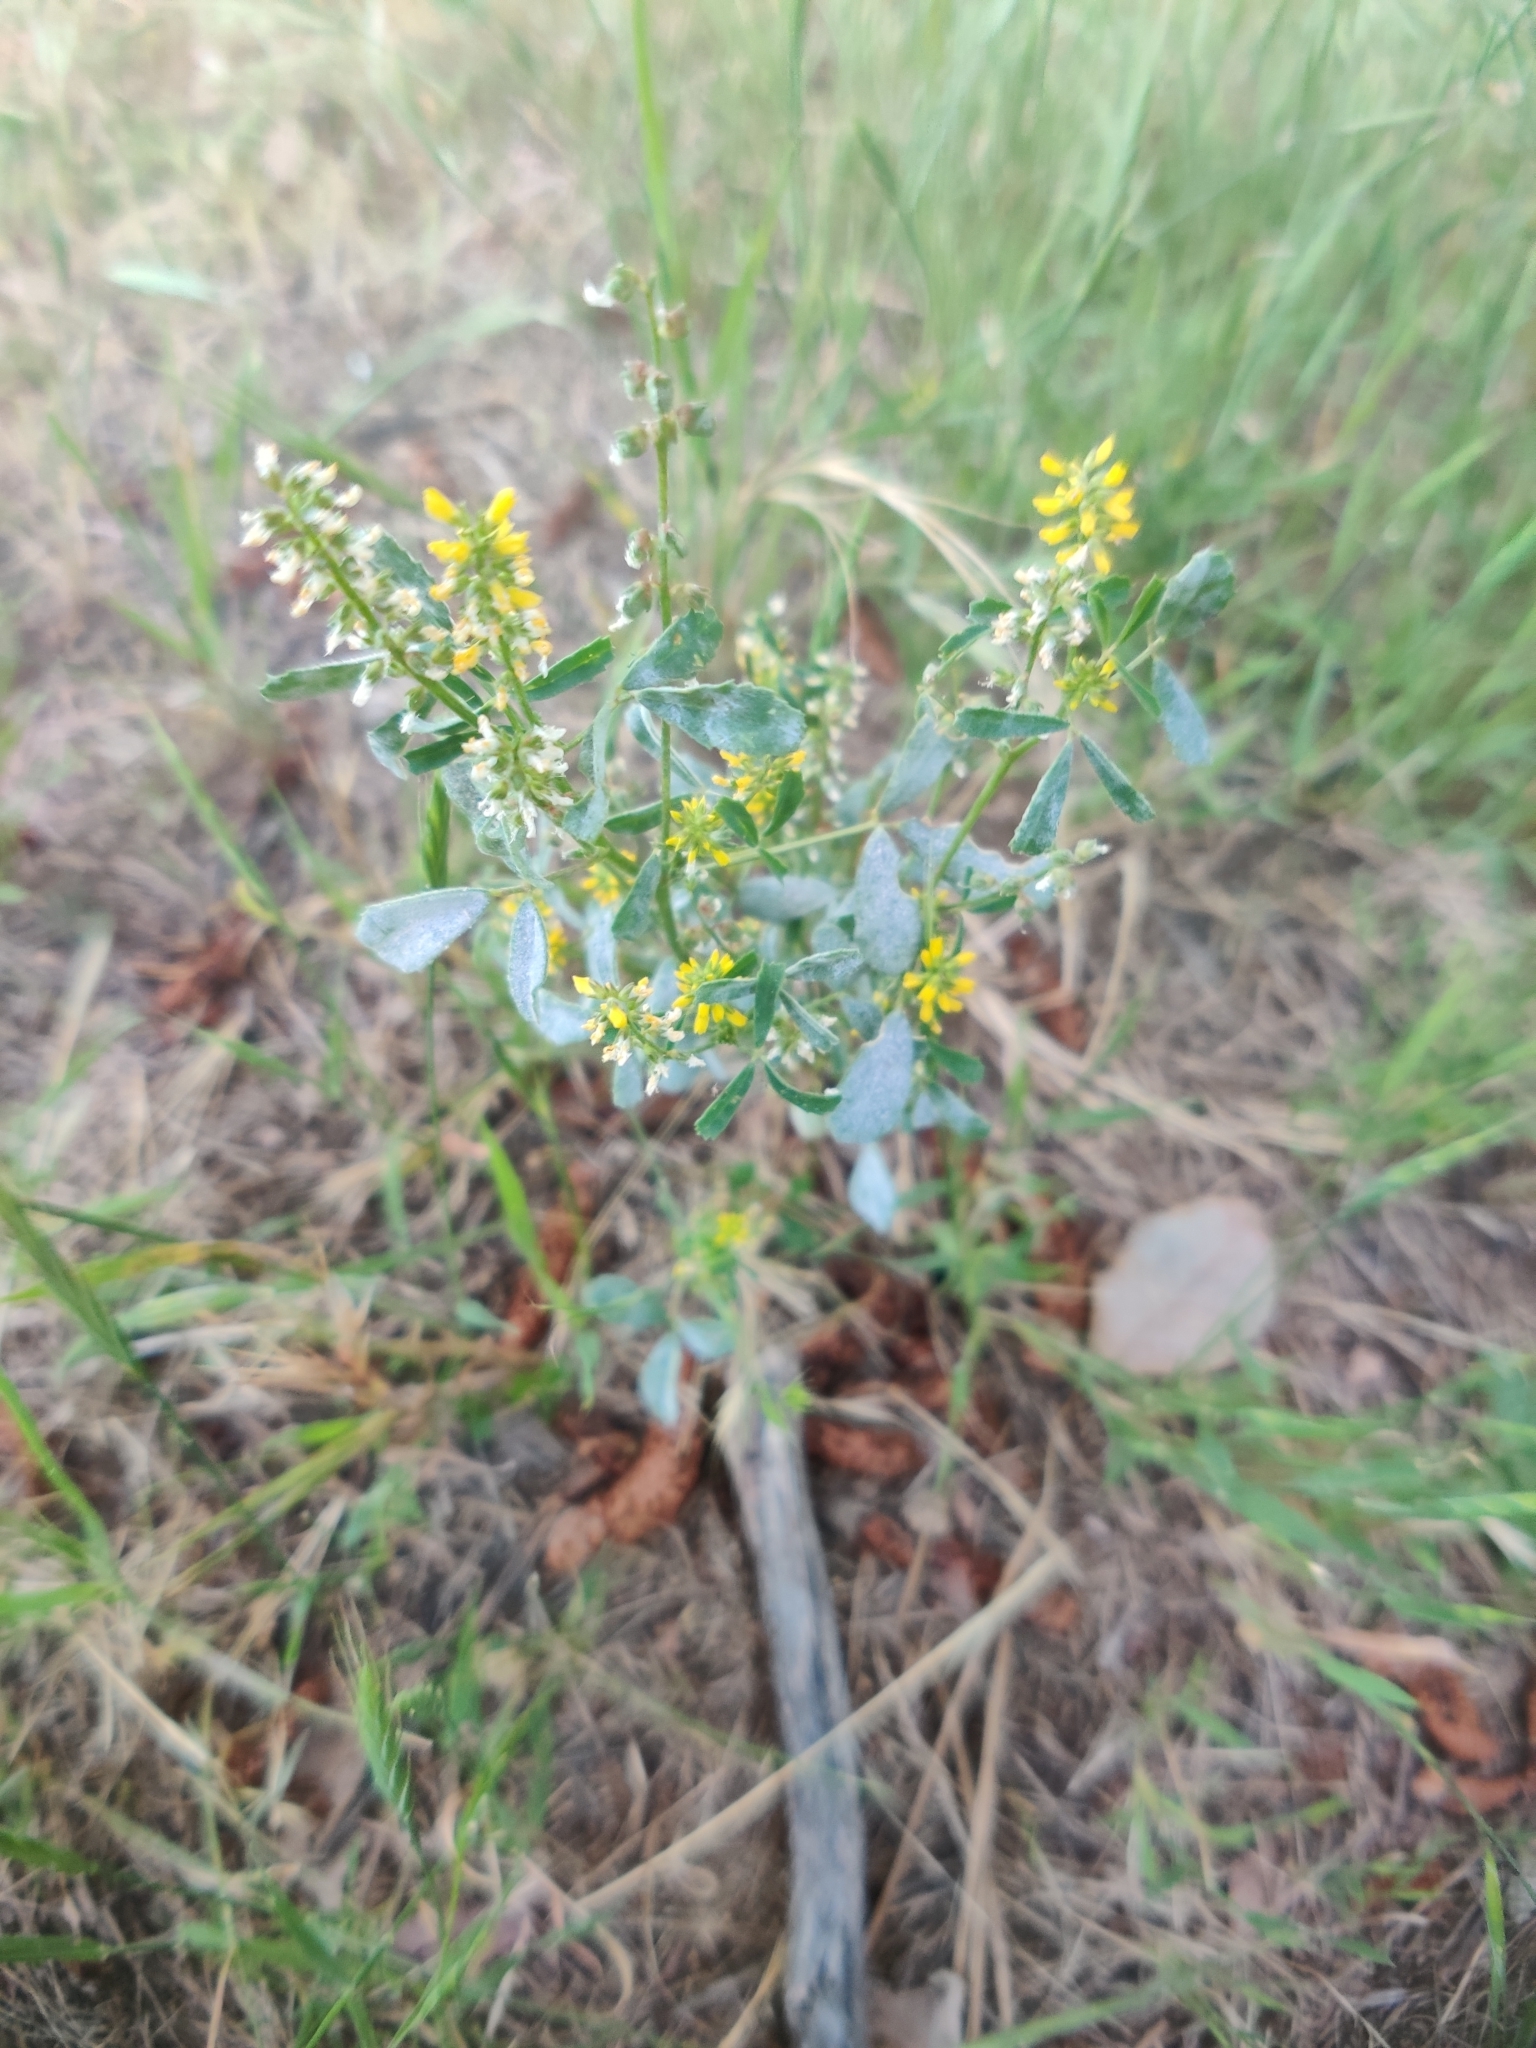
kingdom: Plantae
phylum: Tracheophyta
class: Magnoliopsida
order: Fabales
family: Fabaceae
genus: Melilotus
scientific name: Melilotus indicus
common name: Small melilot
